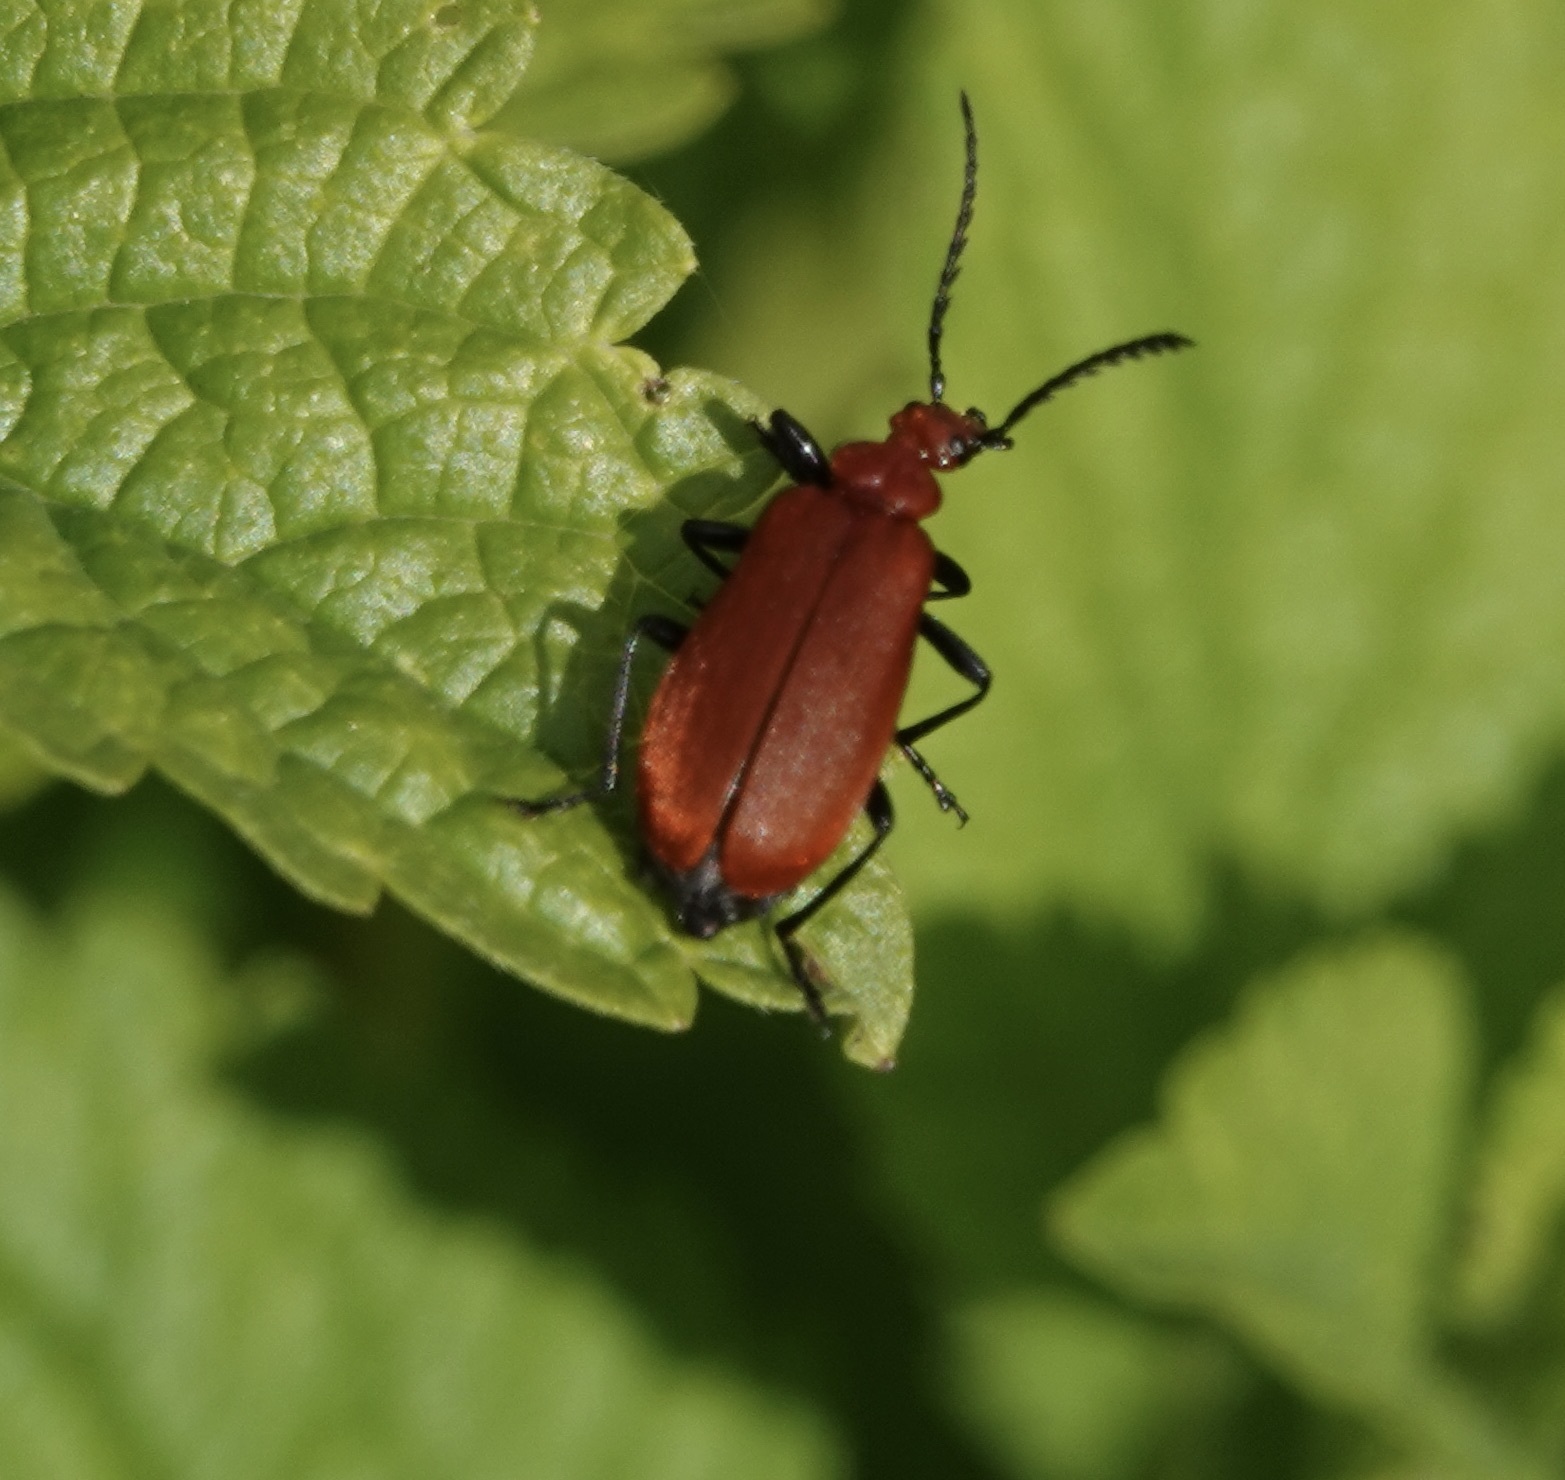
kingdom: Animalia
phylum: Arthropoda
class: Insecta
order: Coleoptera
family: Pyrochroidae
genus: Pyrochroa
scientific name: Pyrochroa serraticornis
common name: Red-headed cardinal beetle
